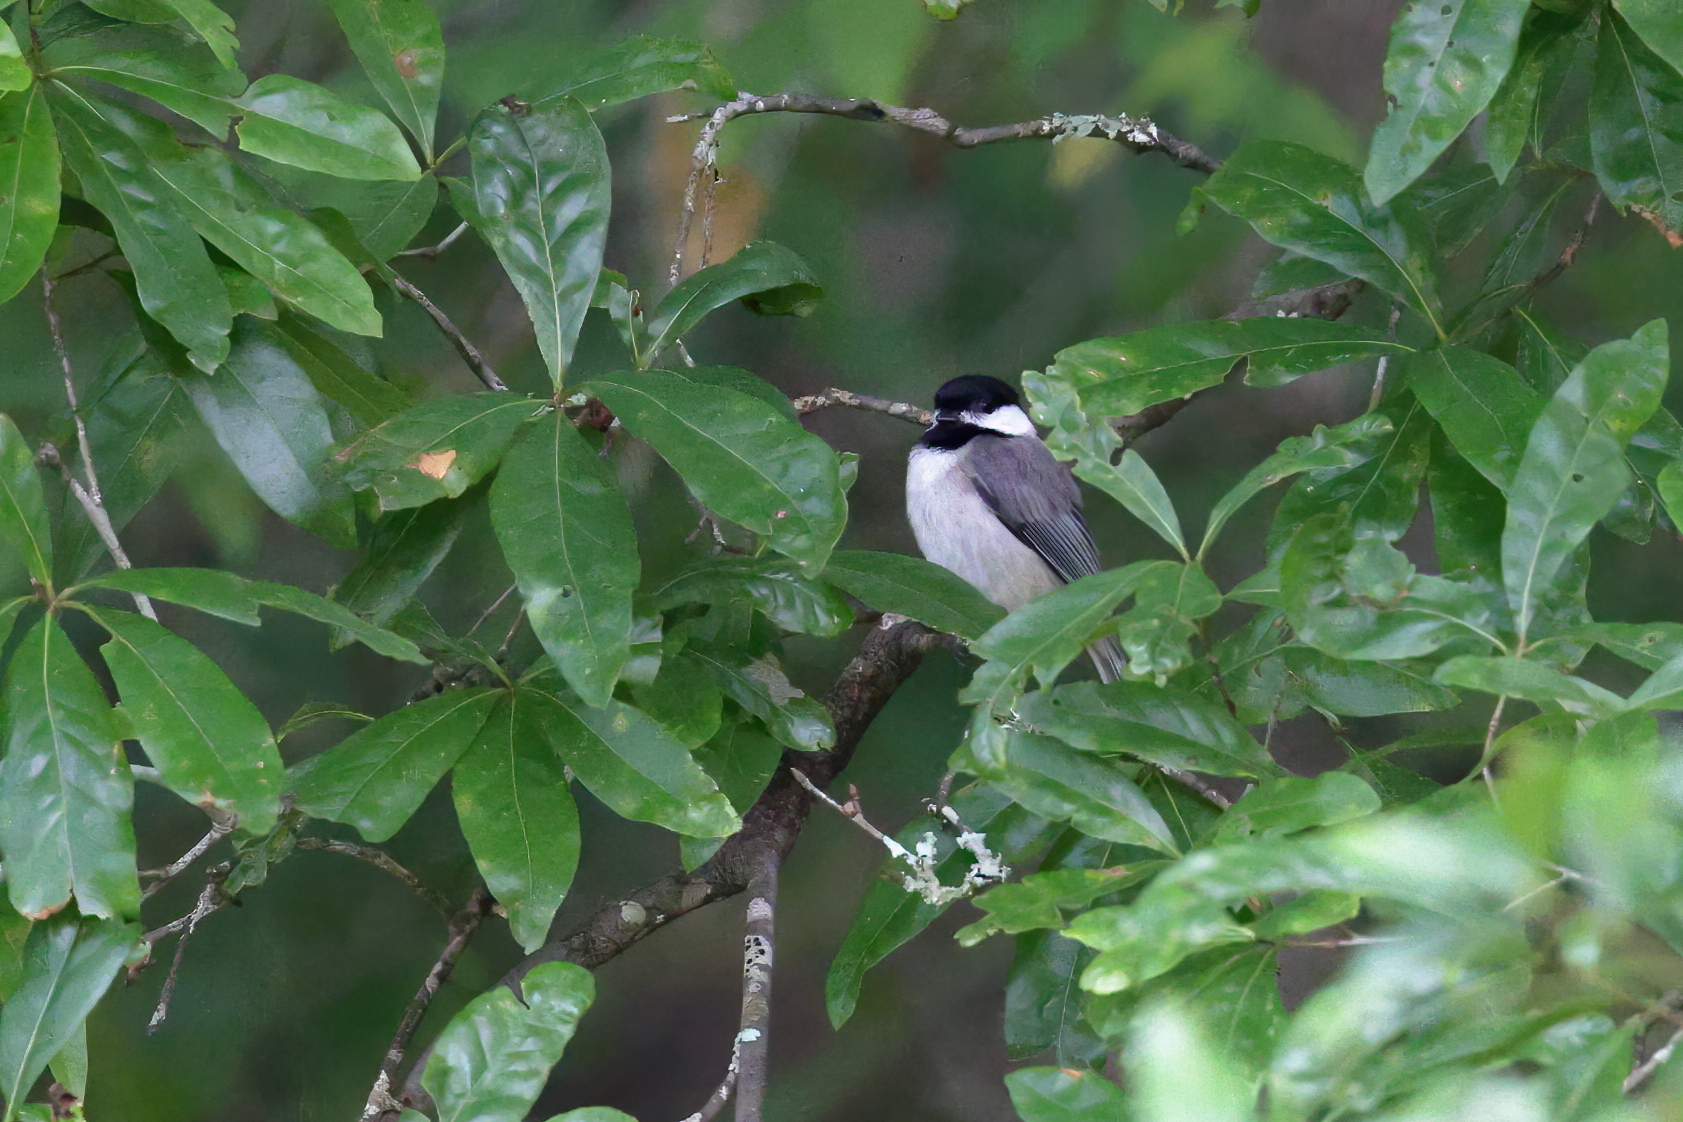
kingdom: Animalia
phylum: Chordata
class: Aves
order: Passeriformes
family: Paridae
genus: Poecile
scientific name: Poecile carolinensis
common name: Carolina chickadee
